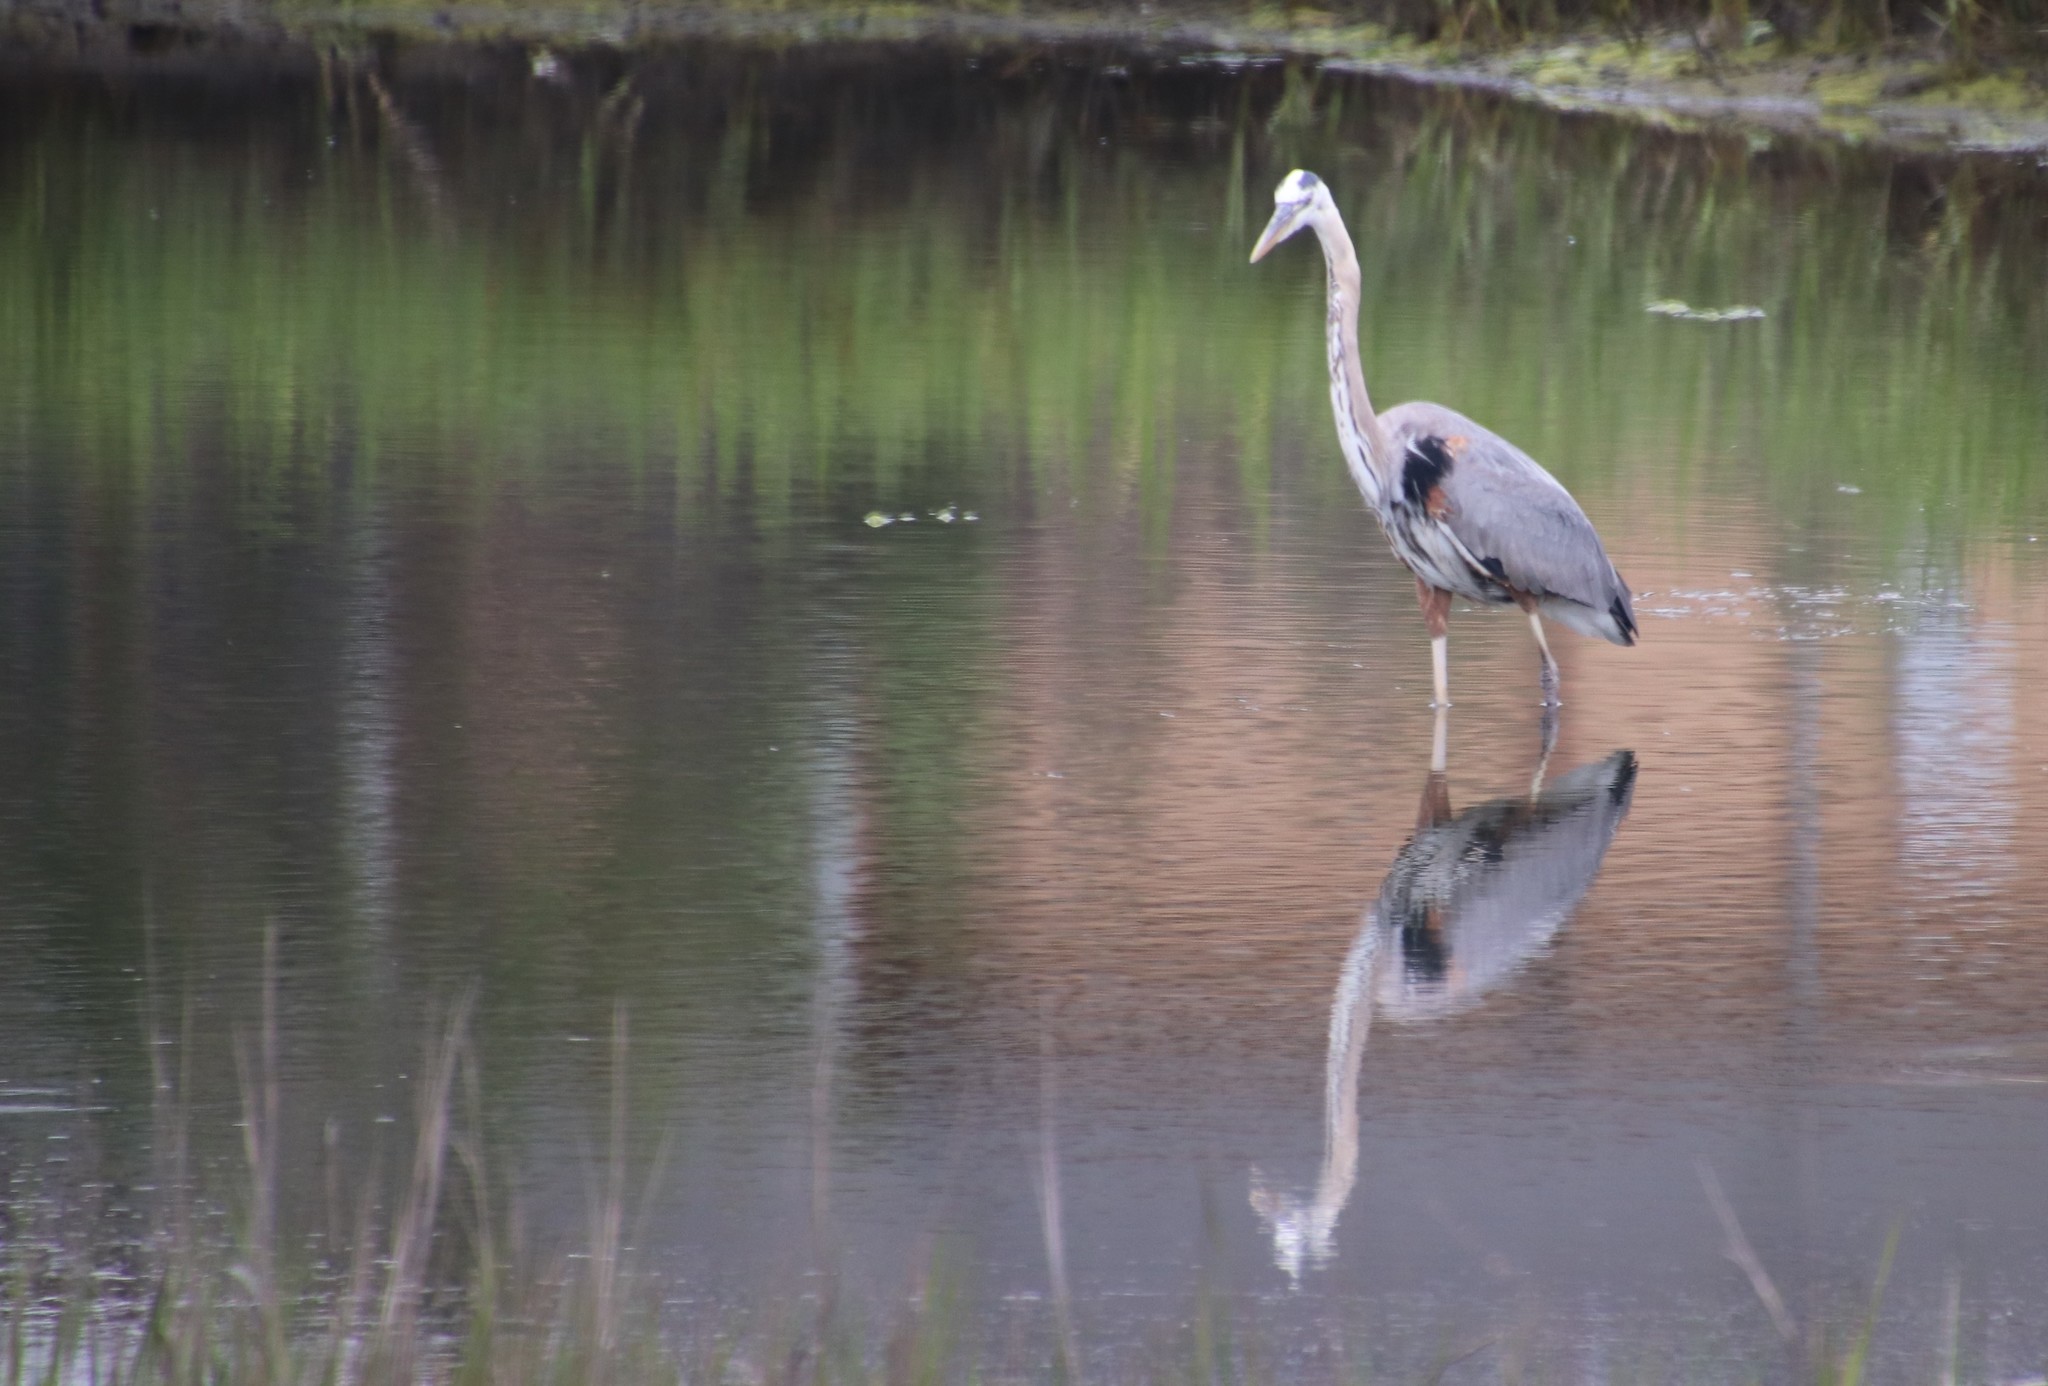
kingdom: Animalia
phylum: Chordata
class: Aves
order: Pelecaniformes
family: Ardeidae
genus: Ardea
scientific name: Ardea herodias
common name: Great blue heron
